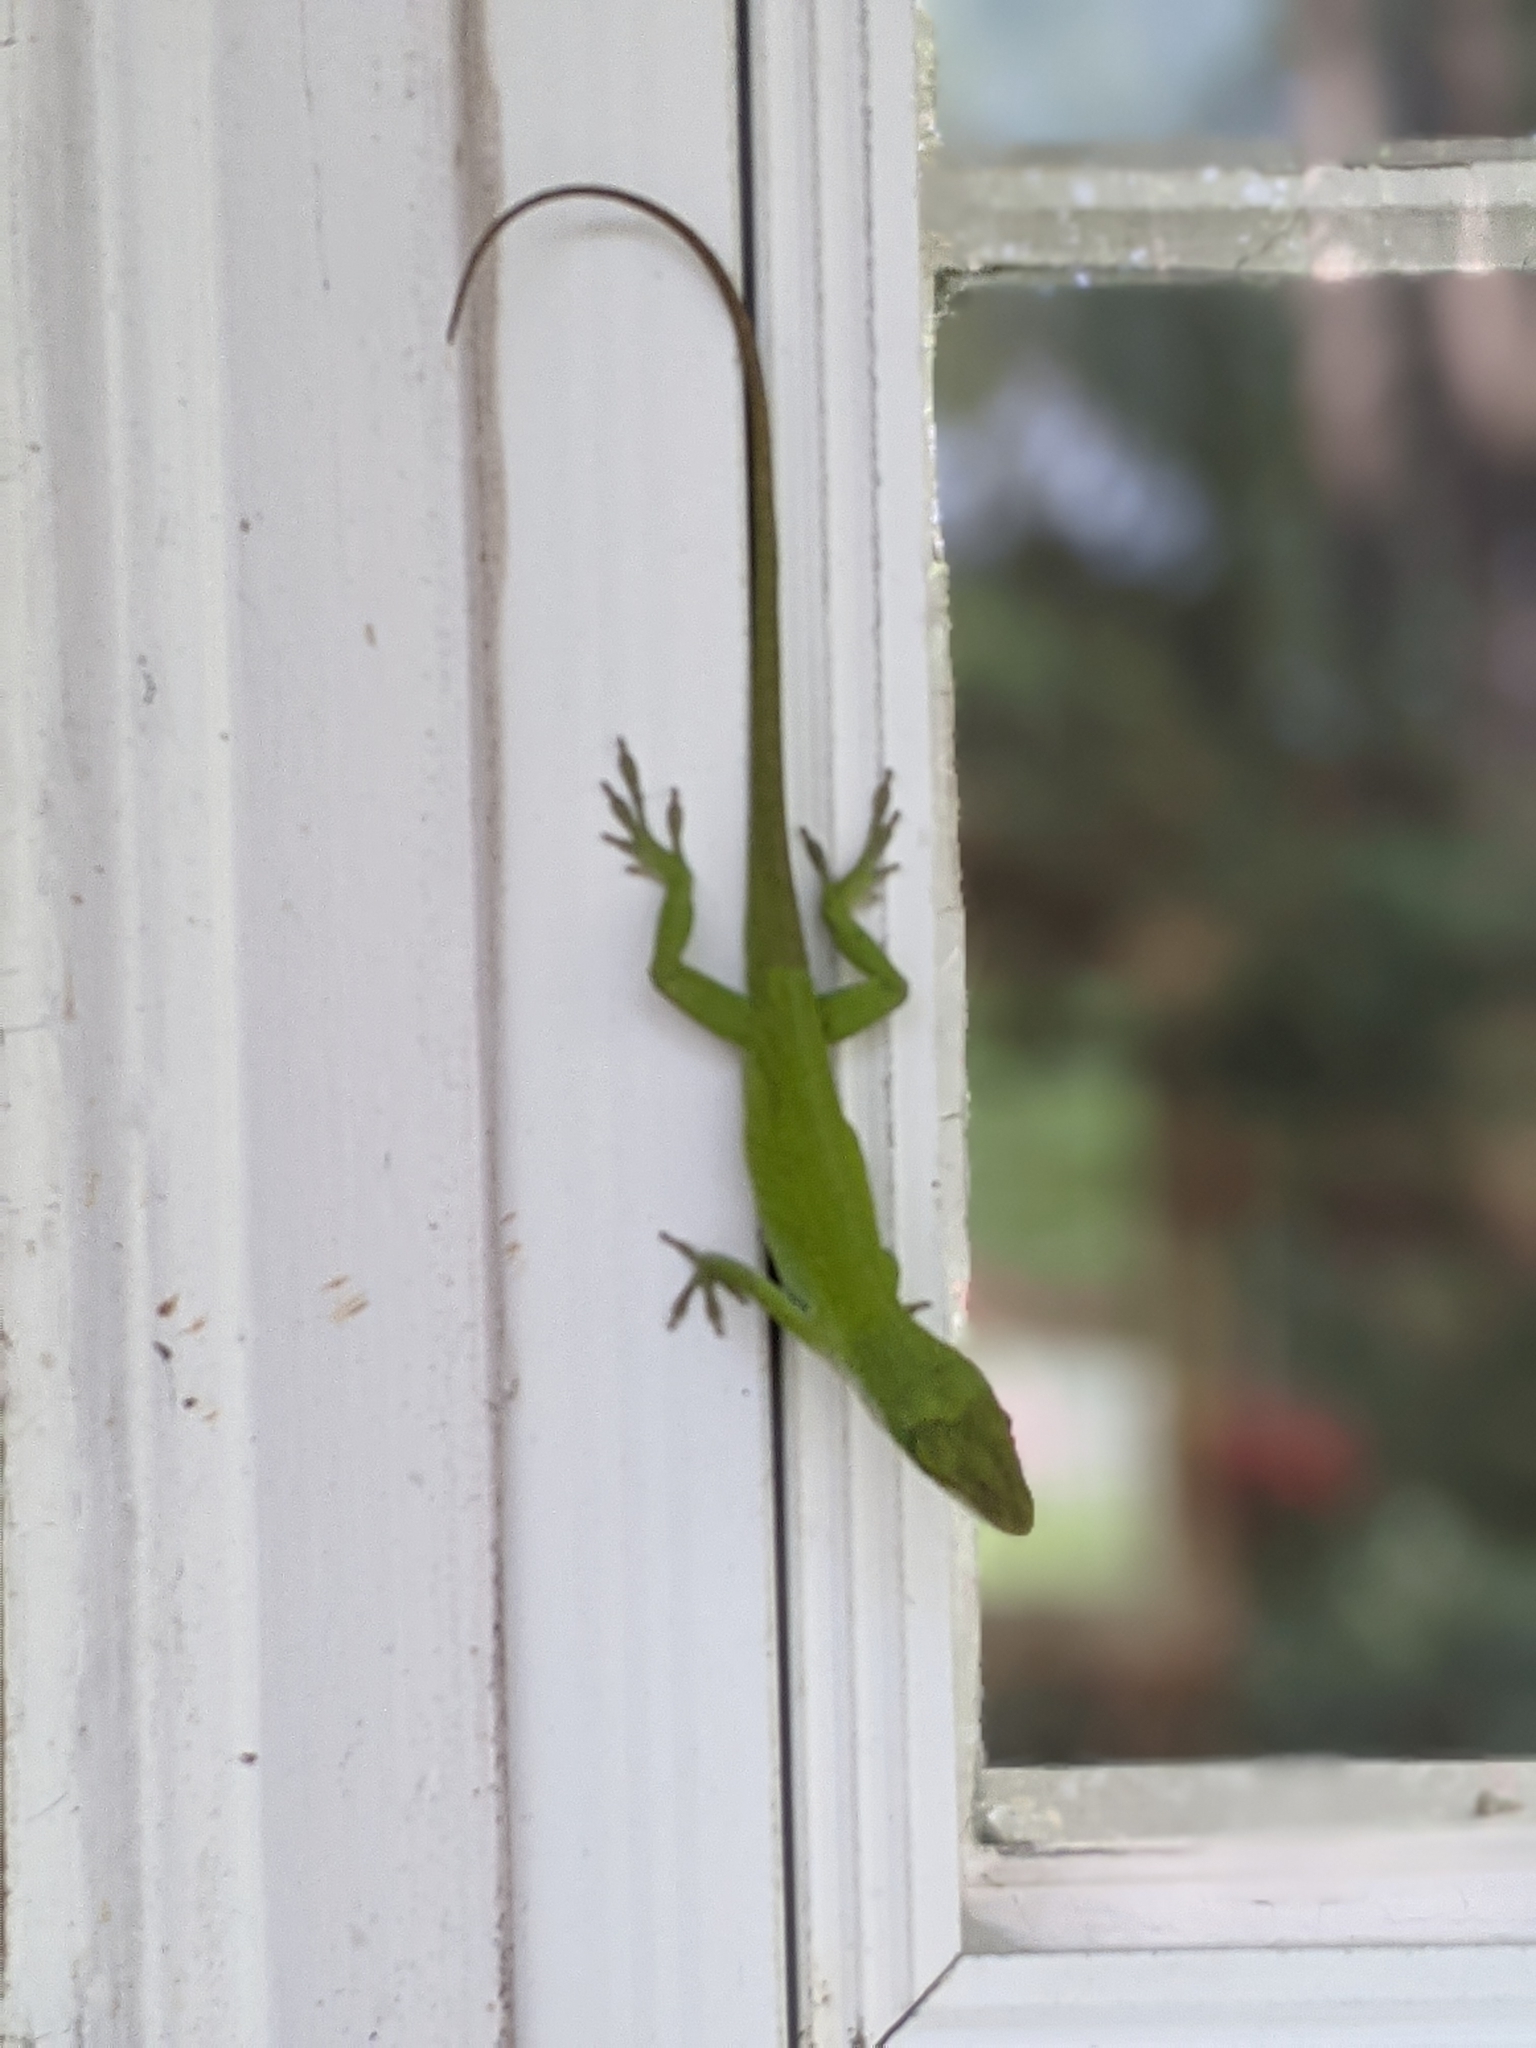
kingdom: Animalia
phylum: Chordata
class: Squamata
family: Dactyloidae
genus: Anolis
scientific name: Anolis carolinensis
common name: Green anole
